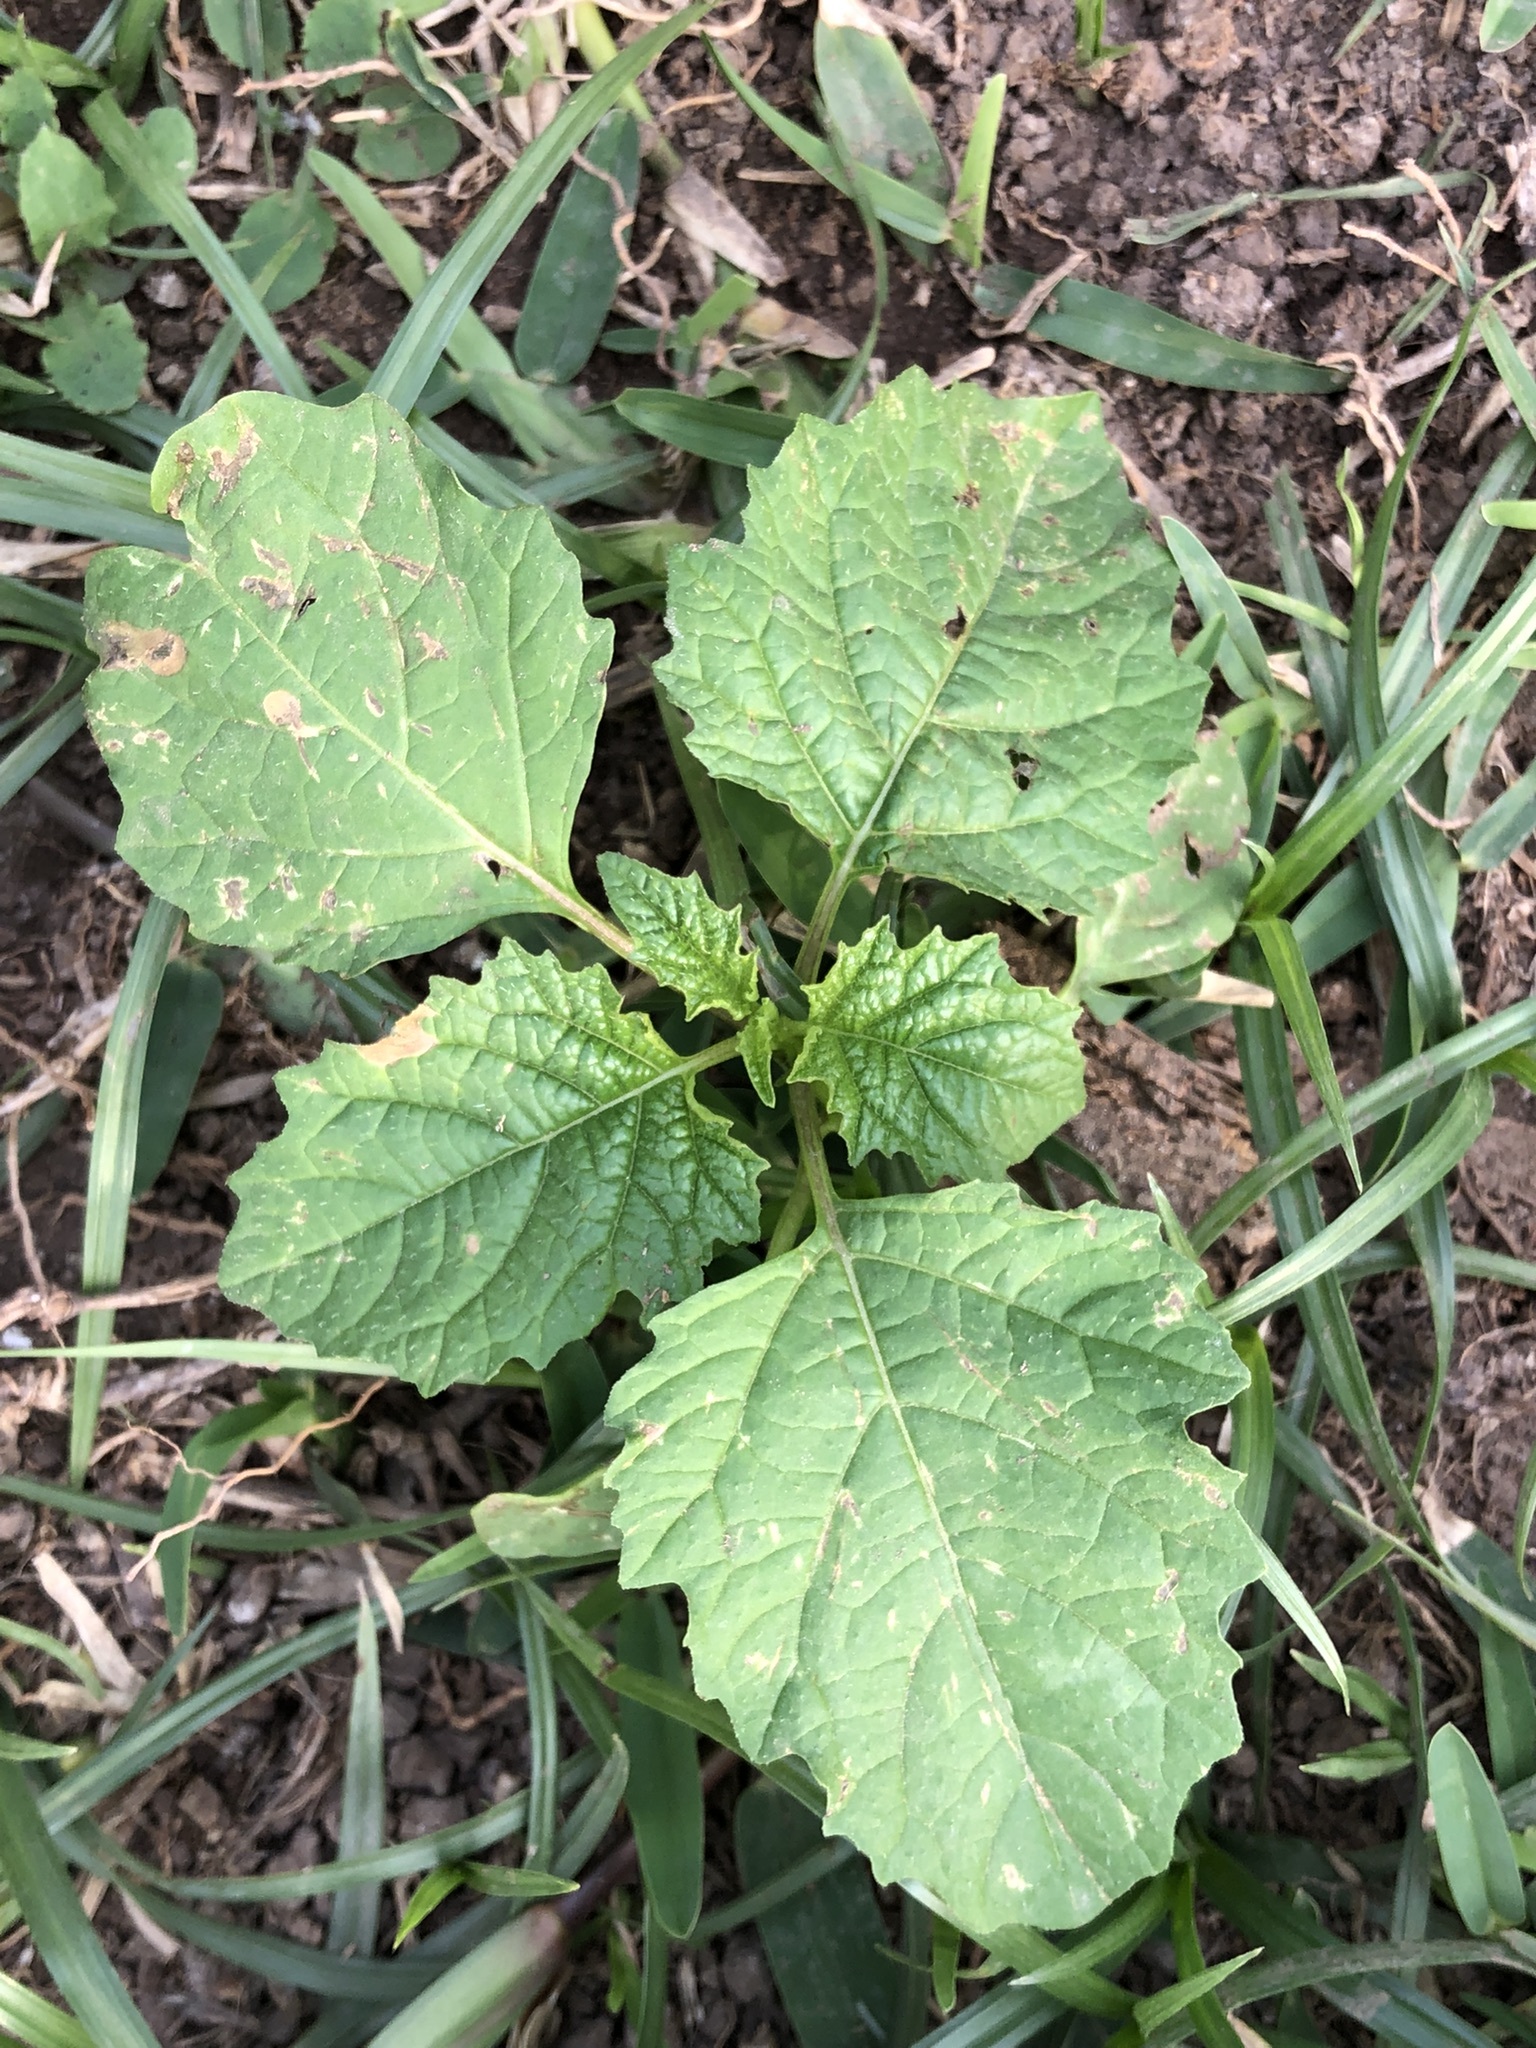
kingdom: Plantae
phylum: Tracheophyta
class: Magnoliopsida
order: Solanales
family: Solanaceae
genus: Nicandra
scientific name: Nicandra physalodes
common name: Apple-of-peru
